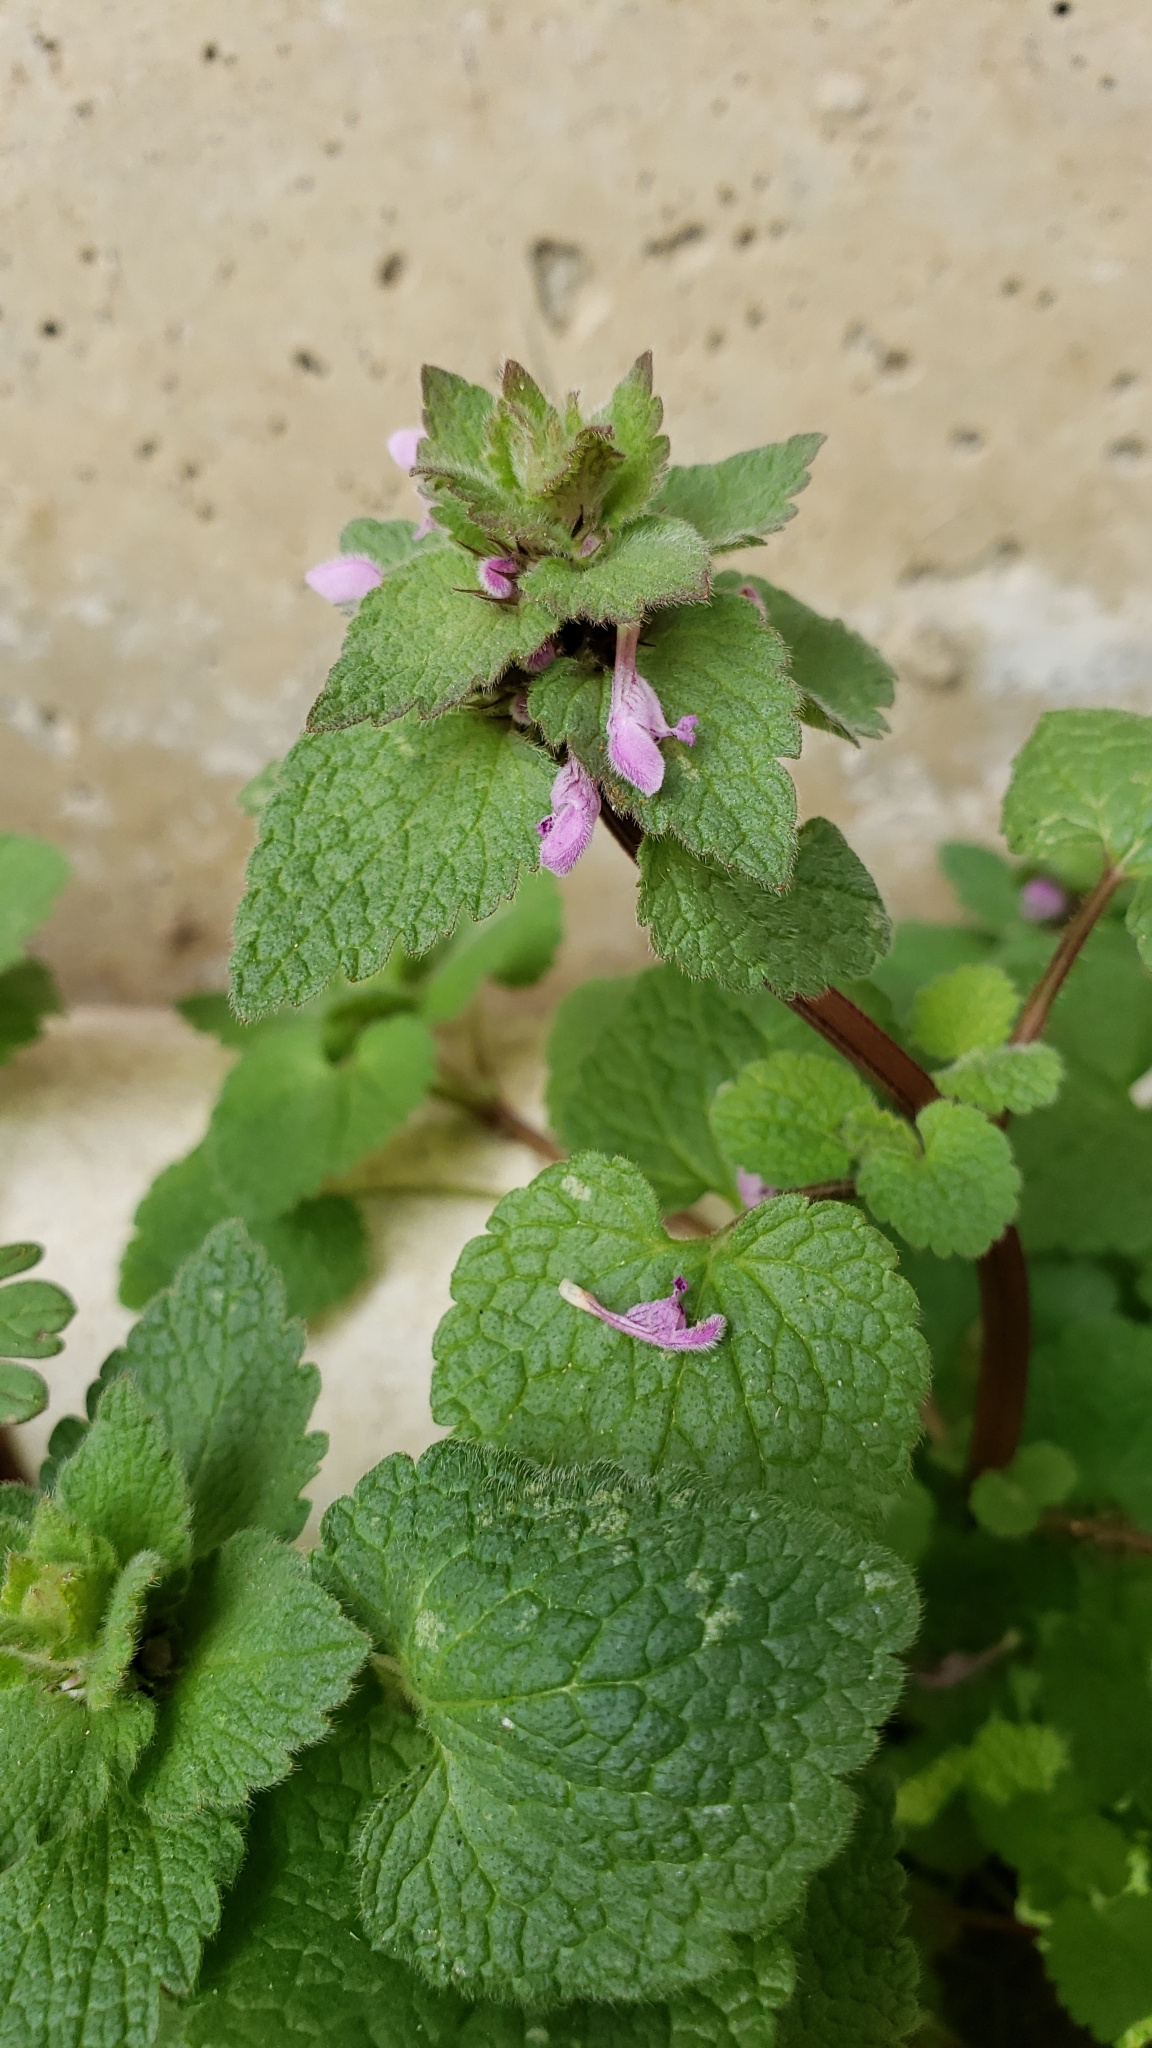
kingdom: Plantae
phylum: Tracheophyta
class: Magnoliopsida
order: Lamiales
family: Lamiaceae
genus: Lamium
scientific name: Lamium purpureum
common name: Red dead-nettle
